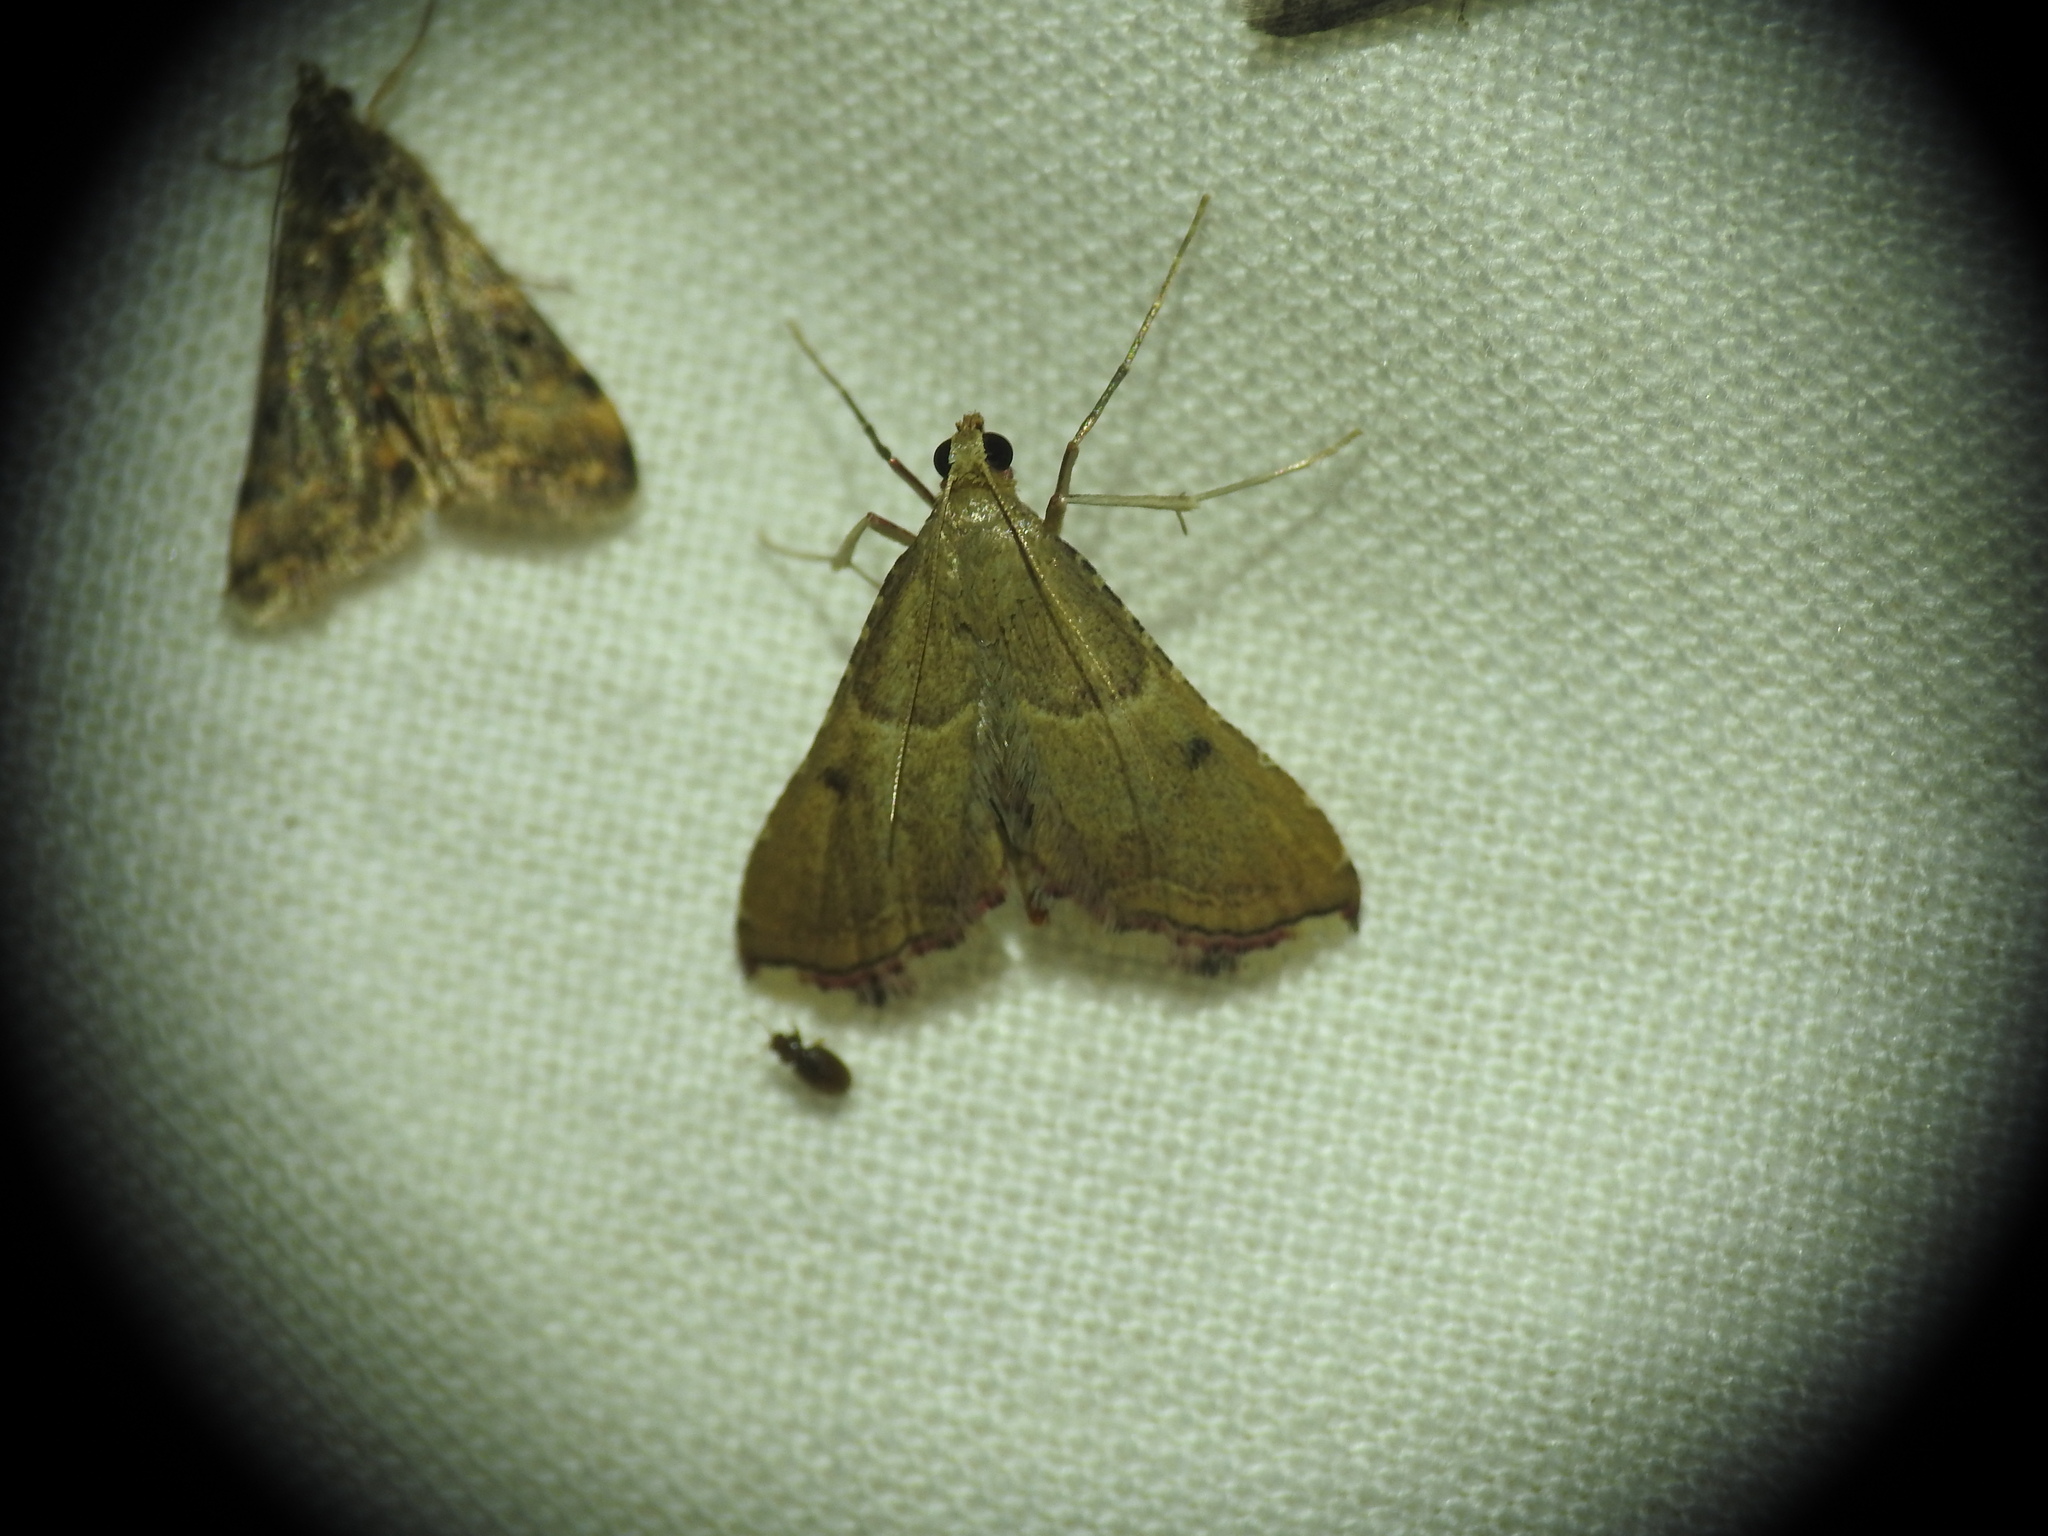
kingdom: Animalia
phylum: Arthropoda
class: Insecta
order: Lepidoptera
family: Pyralidae
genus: Endotricha
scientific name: Endotricha flammealis
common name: Rosy tabby
